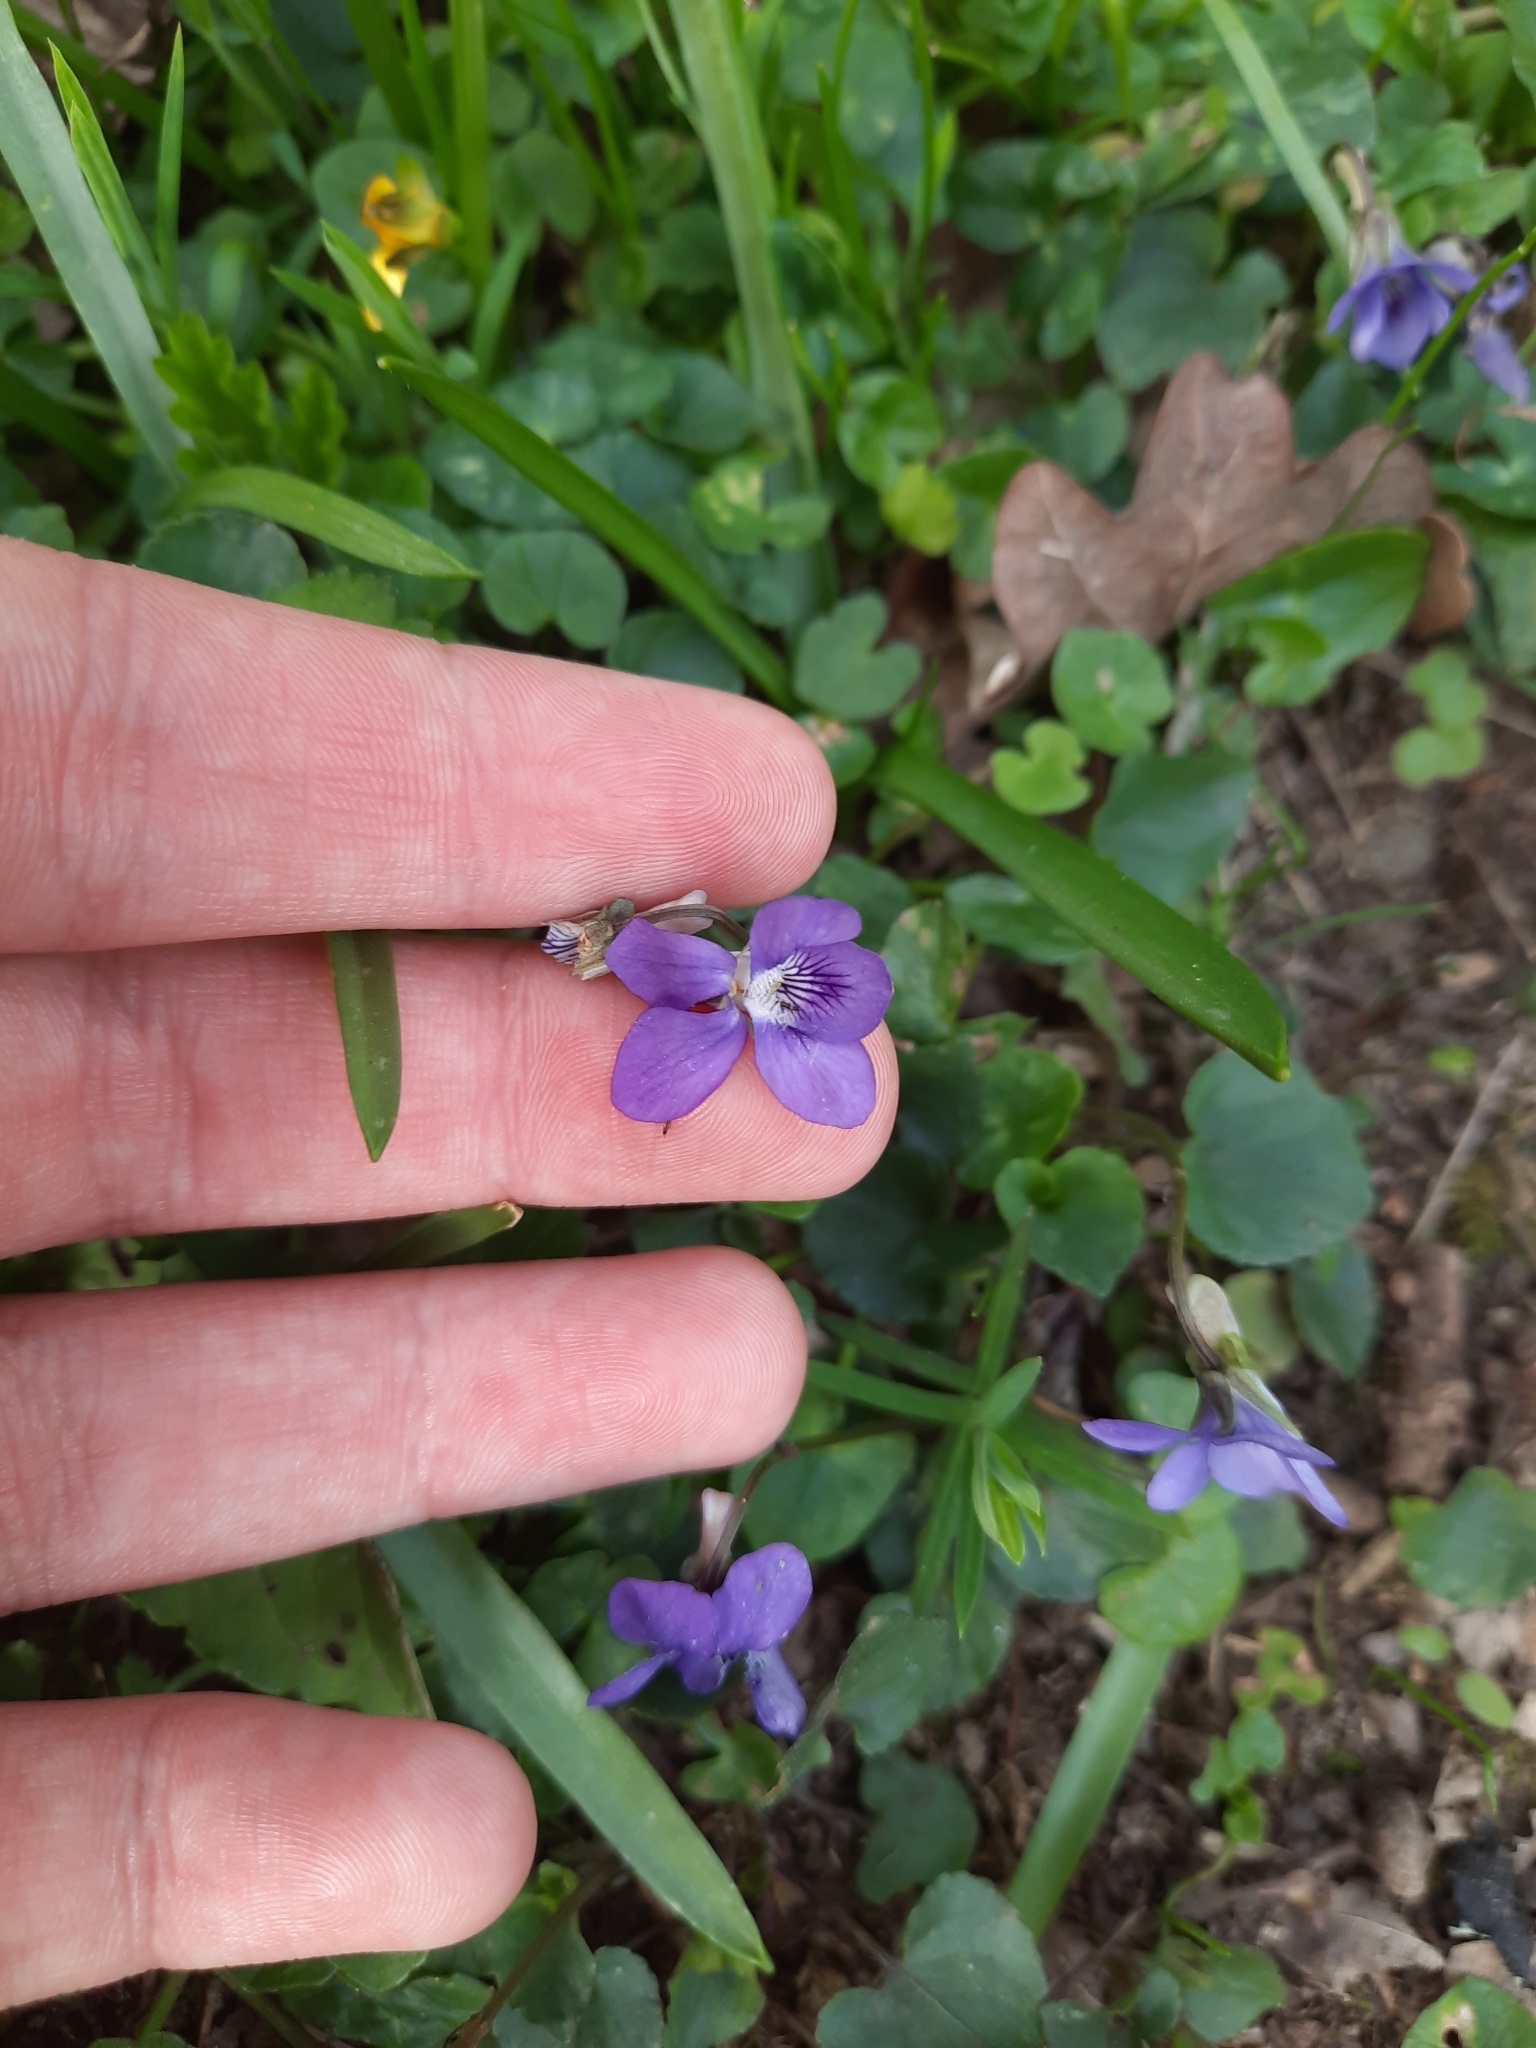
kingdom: Plantae
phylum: Tracheophyta
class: Magnoliopsida
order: Malpighiales
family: Violaceae
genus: Viola
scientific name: Viola riviniana
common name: Common dog-violet
